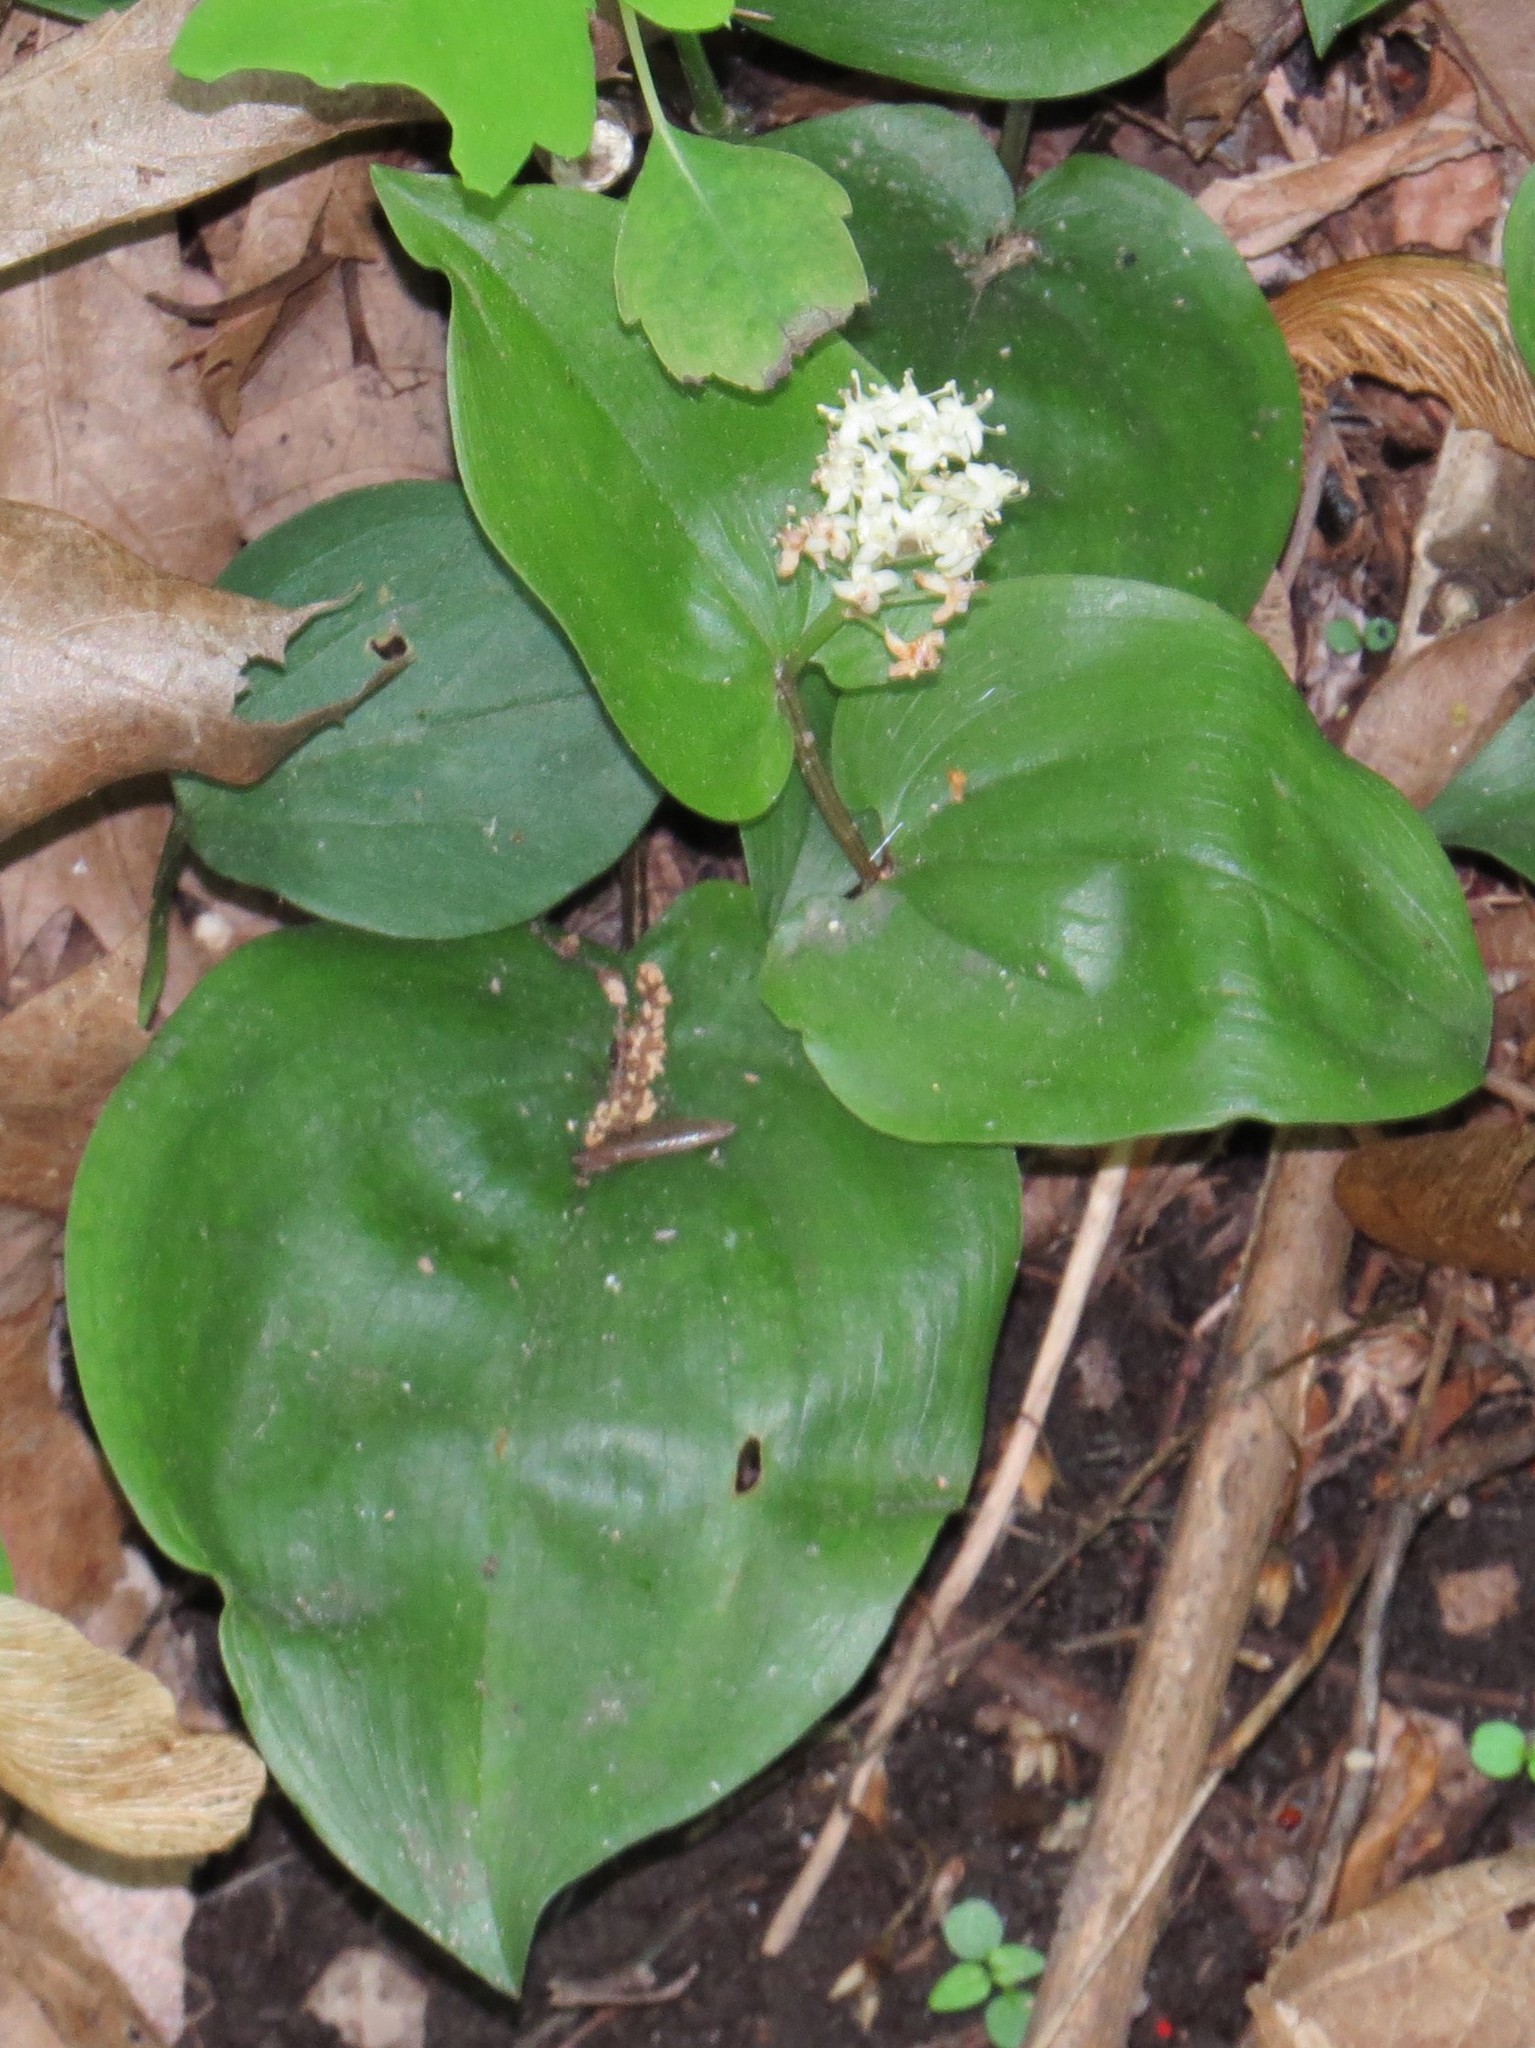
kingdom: Plantae
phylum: Tracheophyta
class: Liliopsida
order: Asparagales
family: Asparagaceae
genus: Maianthemum
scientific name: Maianthemum canadense
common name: False lily-of-the-valley
